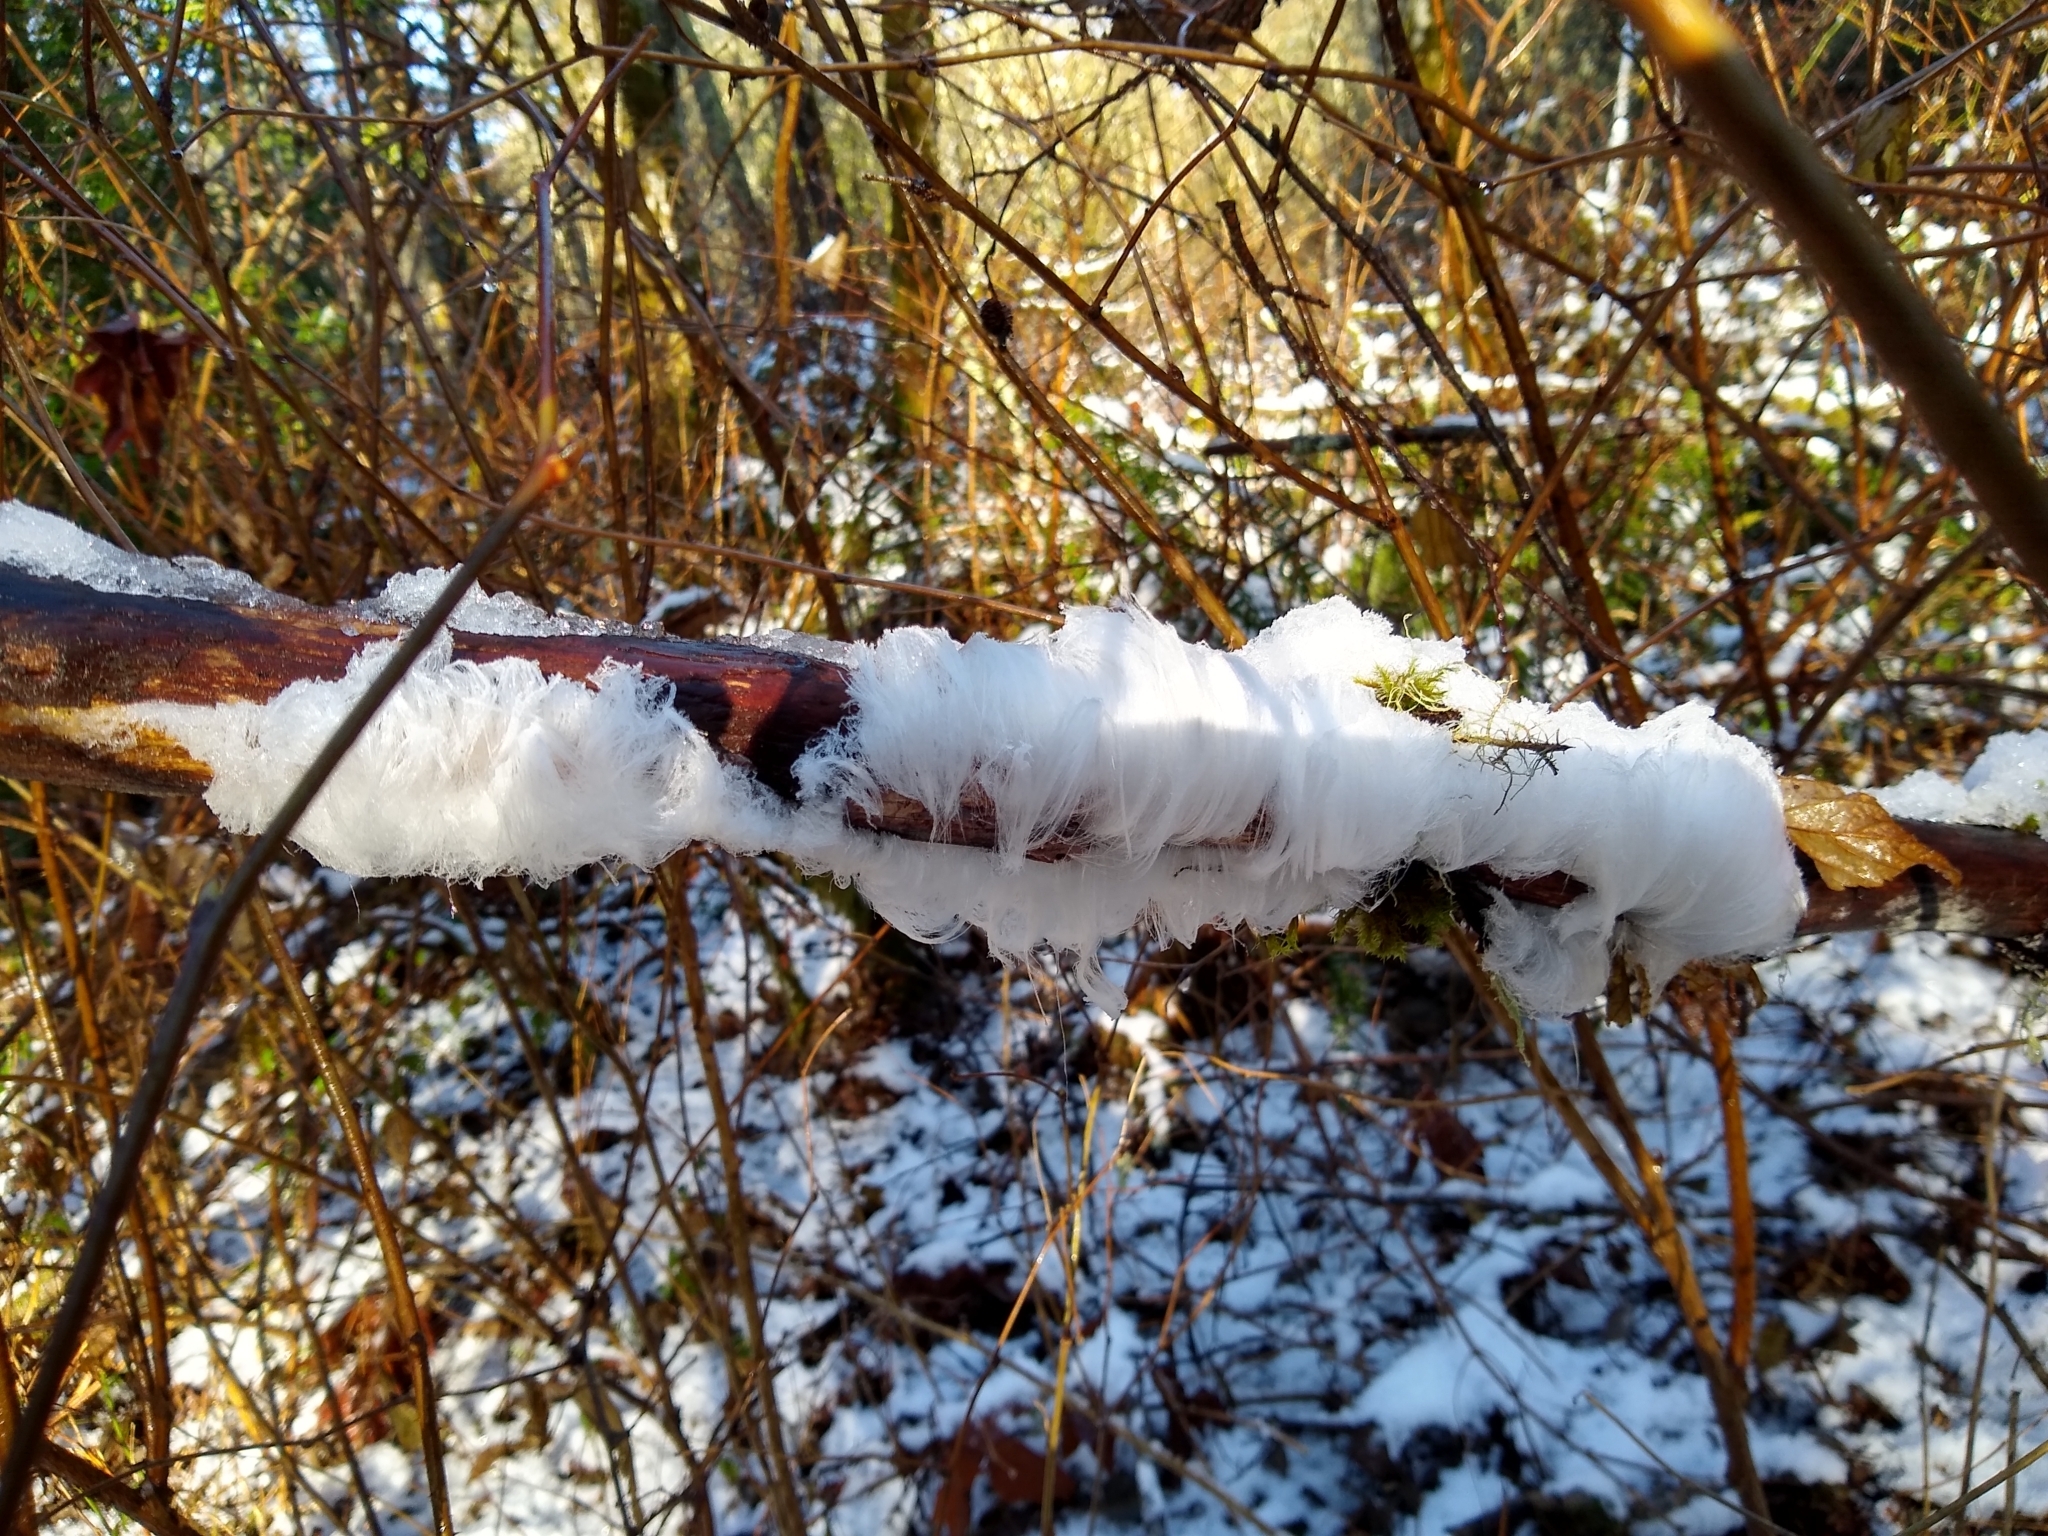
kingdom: Fungi
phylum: Basidiomycota
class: Agaricomycetes
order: Auriculariales
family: Auriculariaceae
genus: Exidiopsis
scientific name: Exidiopsis effusa
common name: Hair ice crust
